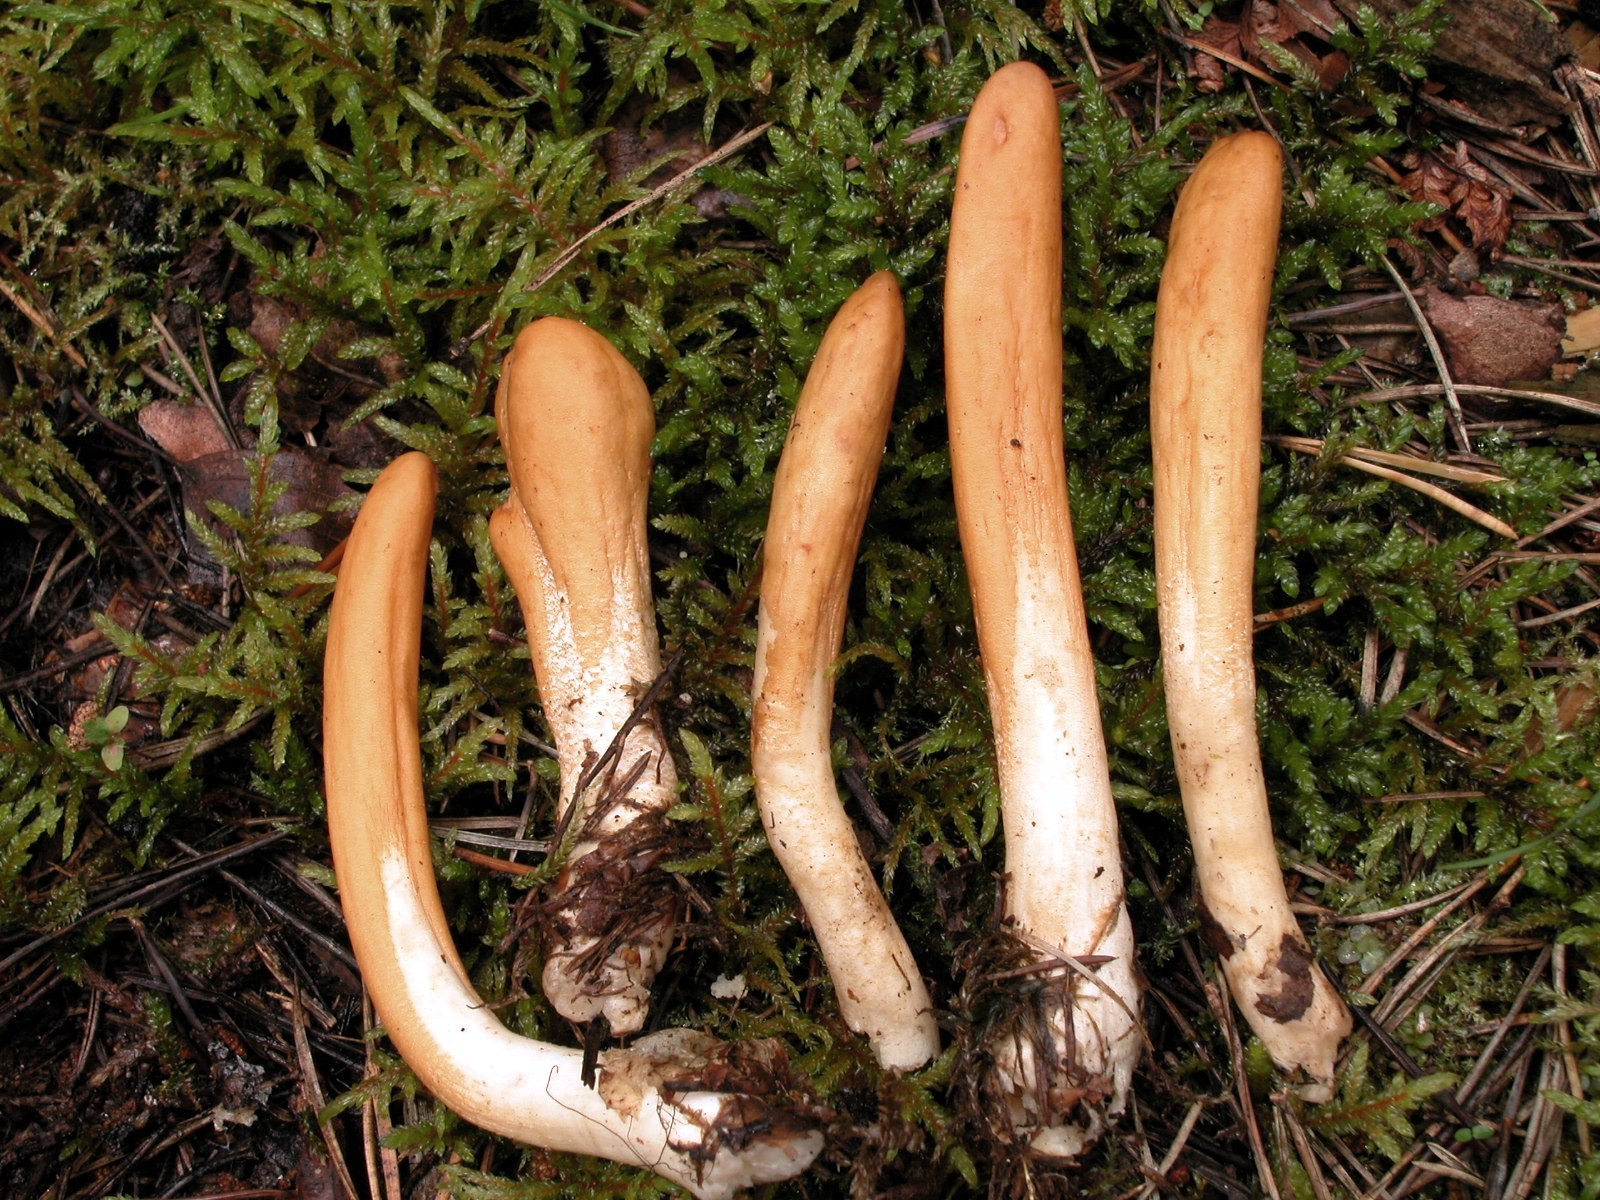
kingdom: Fungi
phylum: Ascomycota
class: Sordariomycetes
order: Hypocreales
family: Hypocreaceae
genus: Trichoderma
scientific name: Trichoderma nybergianum
